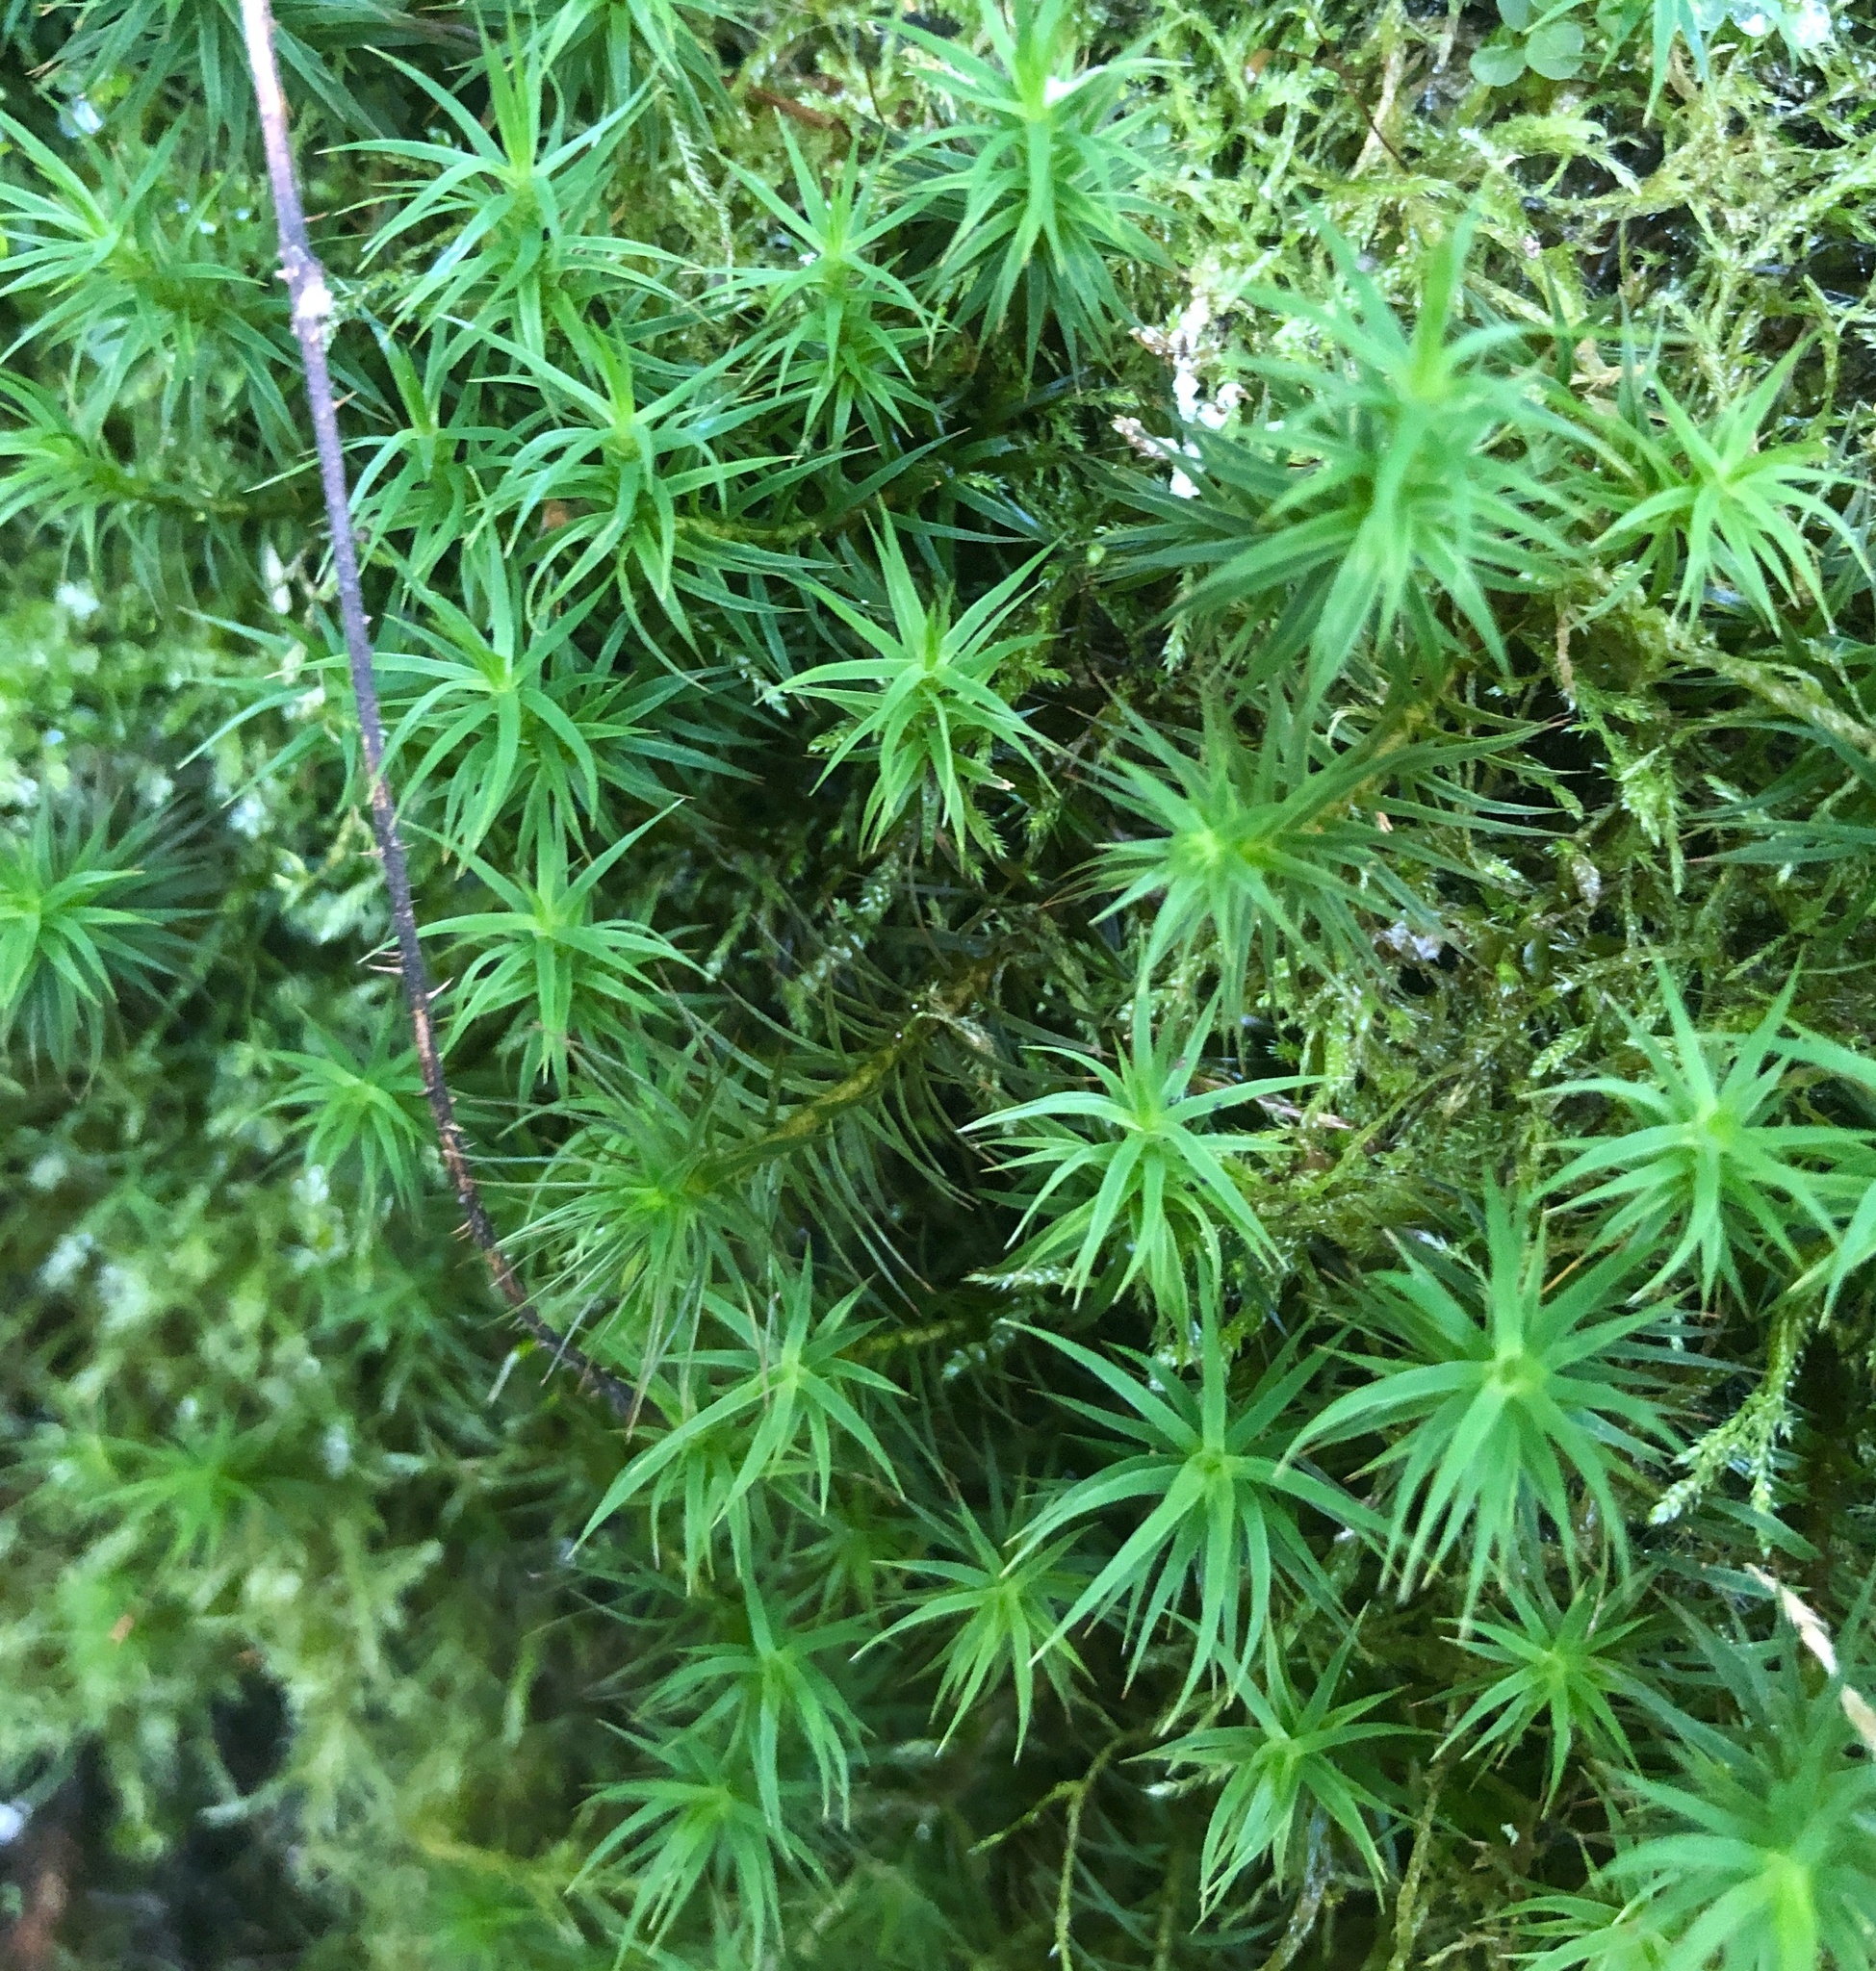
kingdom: Plantae
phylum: Bryophyta
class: Polytrichopsida
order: Polytrichales
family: Polytrichaceae
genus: Polytrichum
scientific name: Polytrichum formosum
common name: Bank haircap moss
